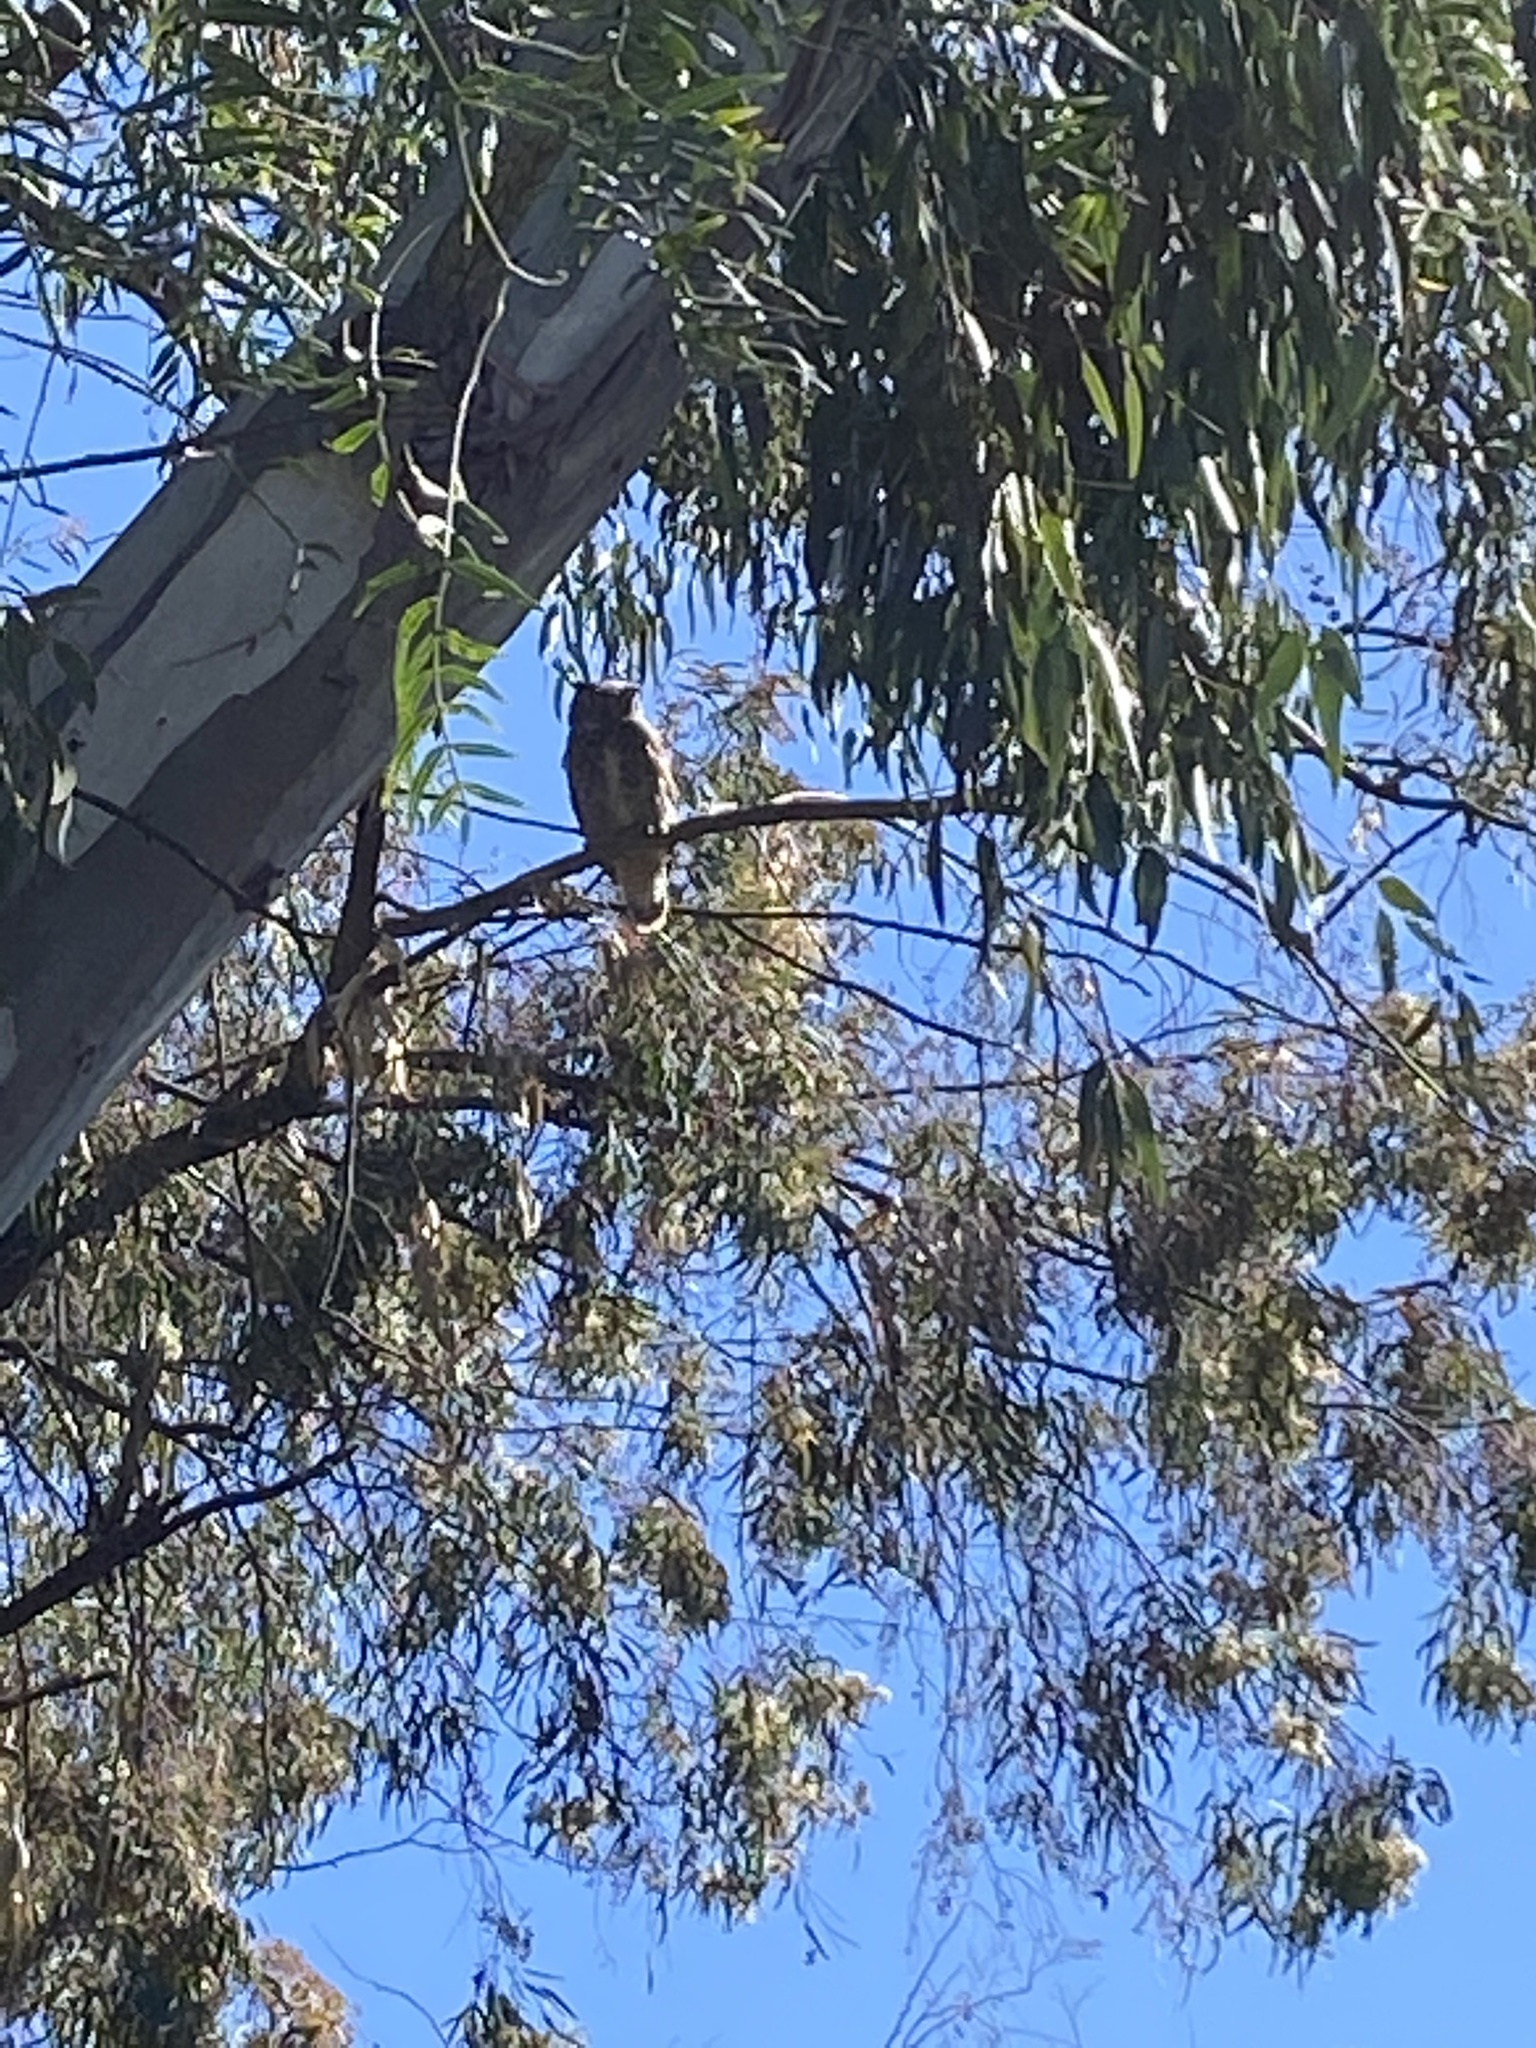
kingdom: Animalia
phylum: Chordata
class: Aves
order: Strigiformes
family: Strigidae
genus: Bubo
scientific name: Bubo virginianus
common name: Great horned owl
